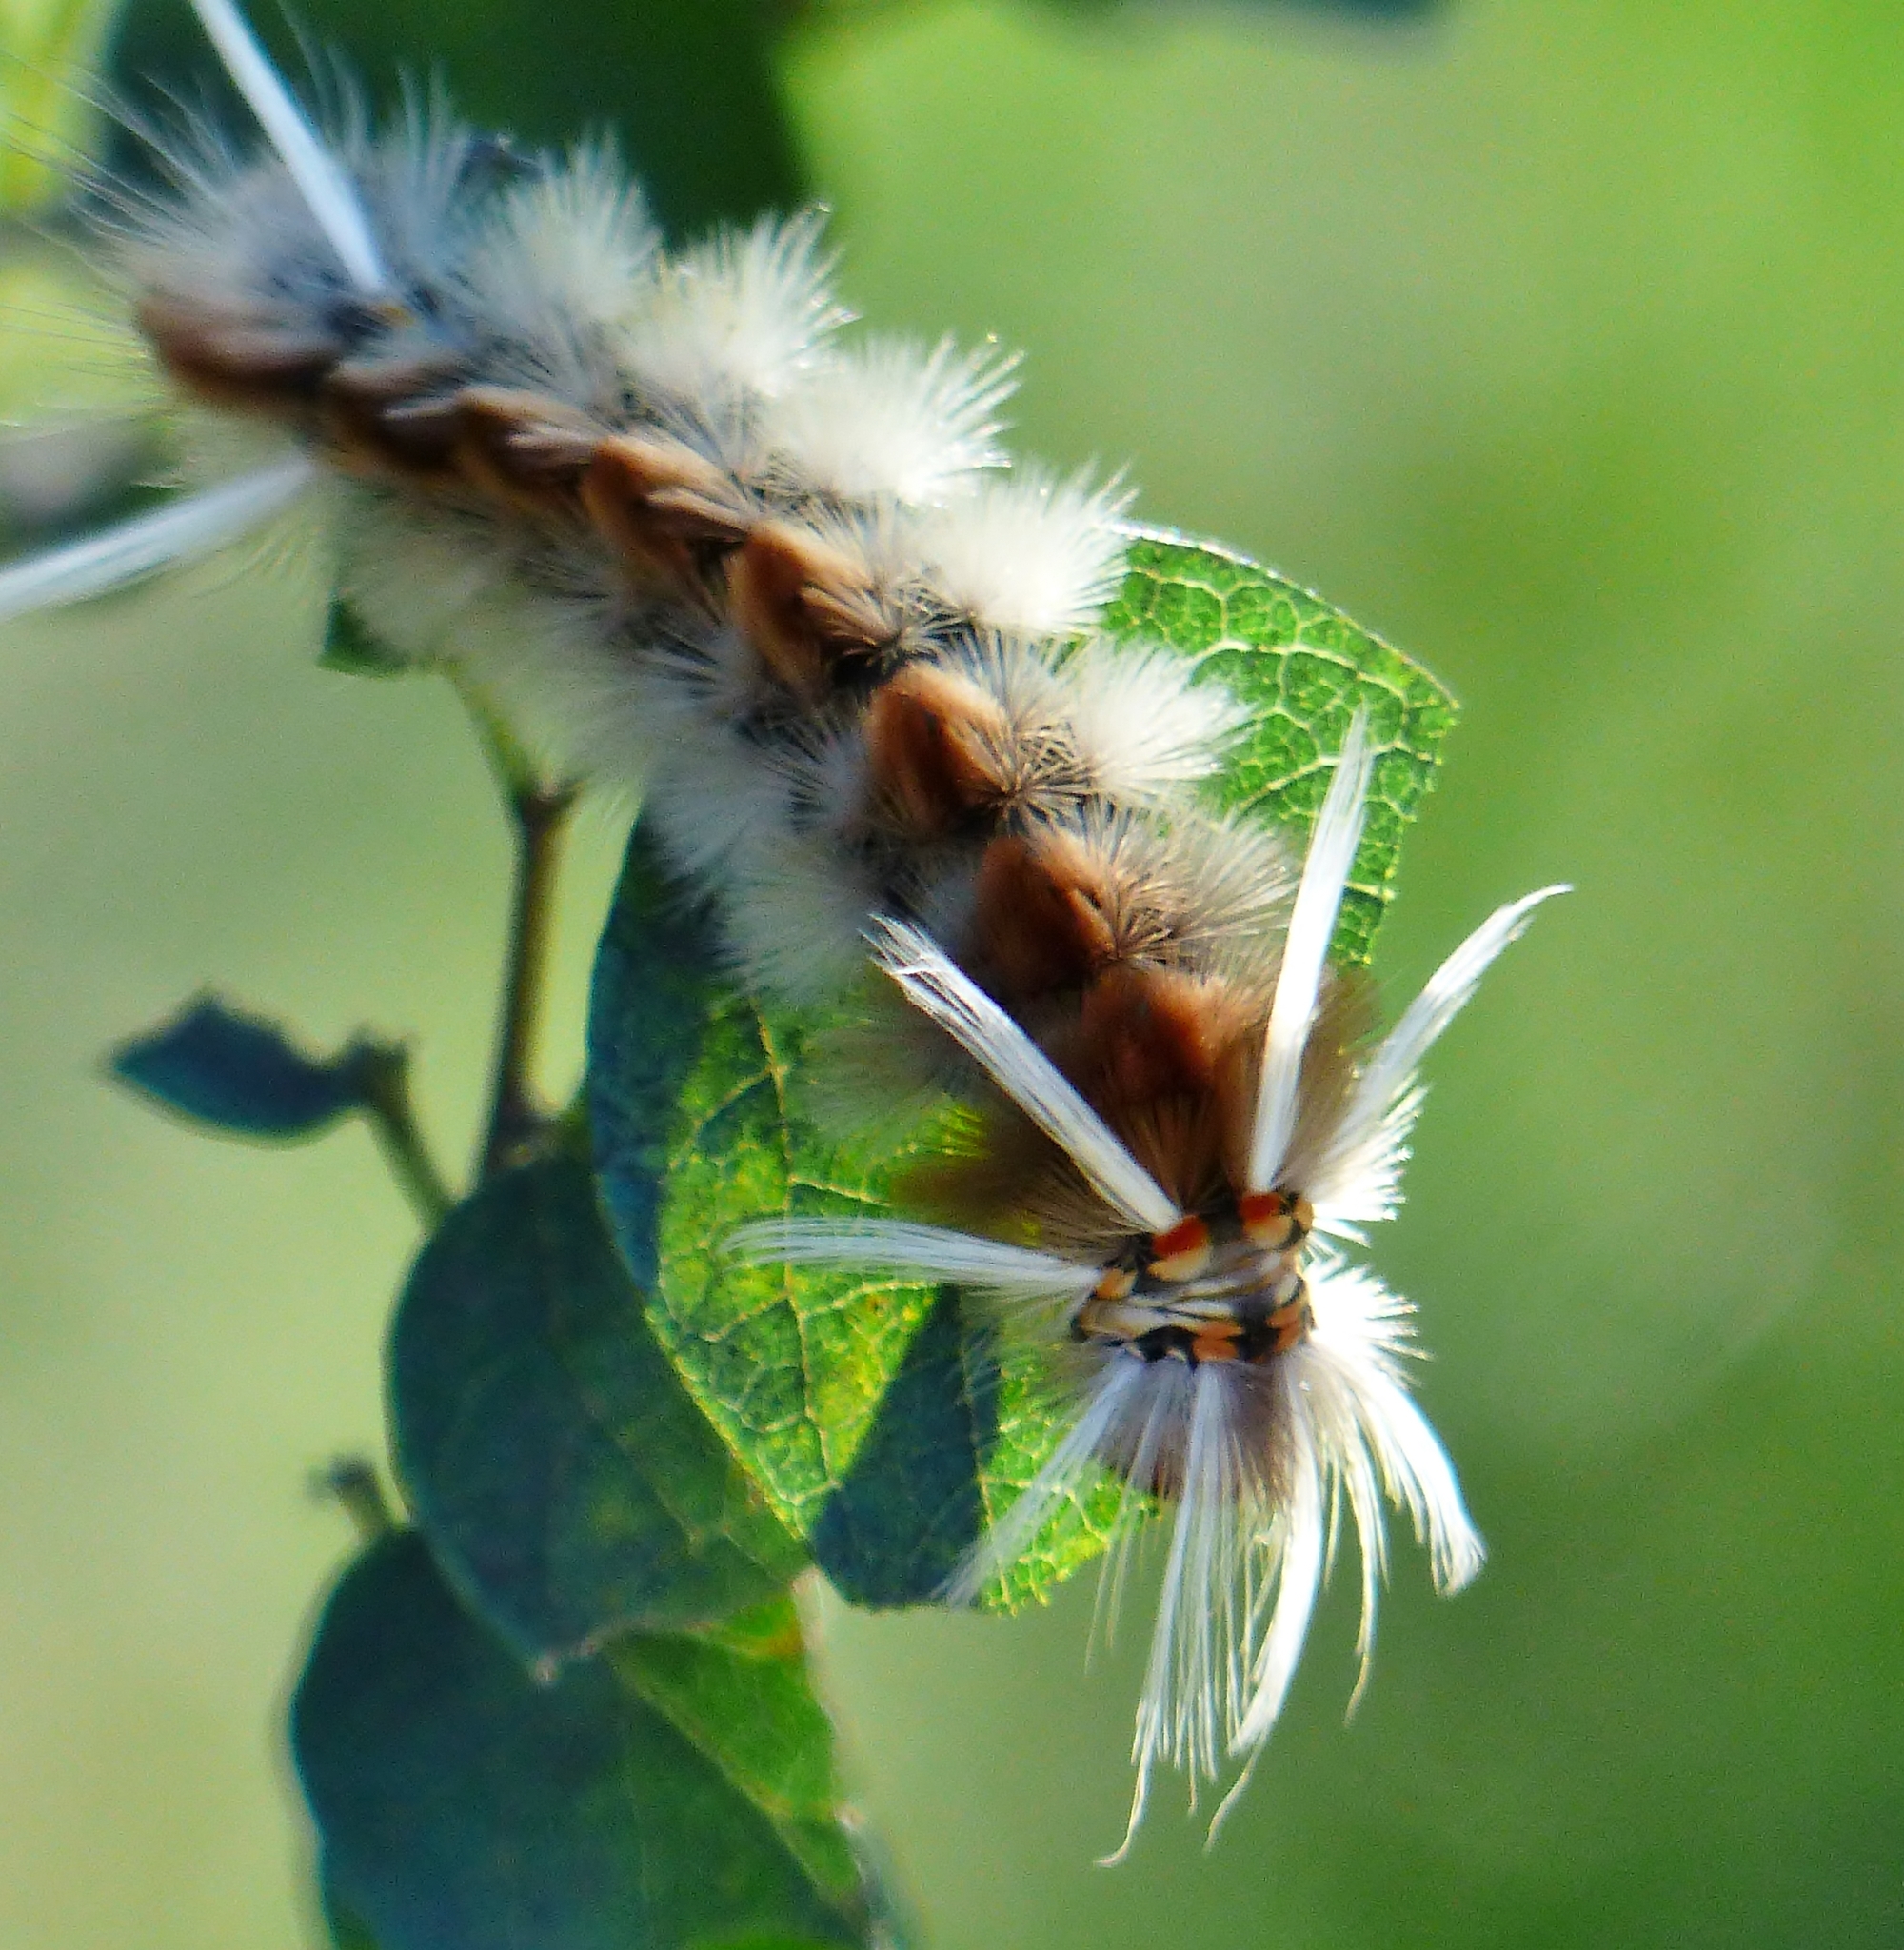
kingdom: Animalia
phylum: Arthropoda
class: Insecta
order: Lepidoptera
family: Erebidae
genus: Halysidota
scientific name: Halysidota schausi
